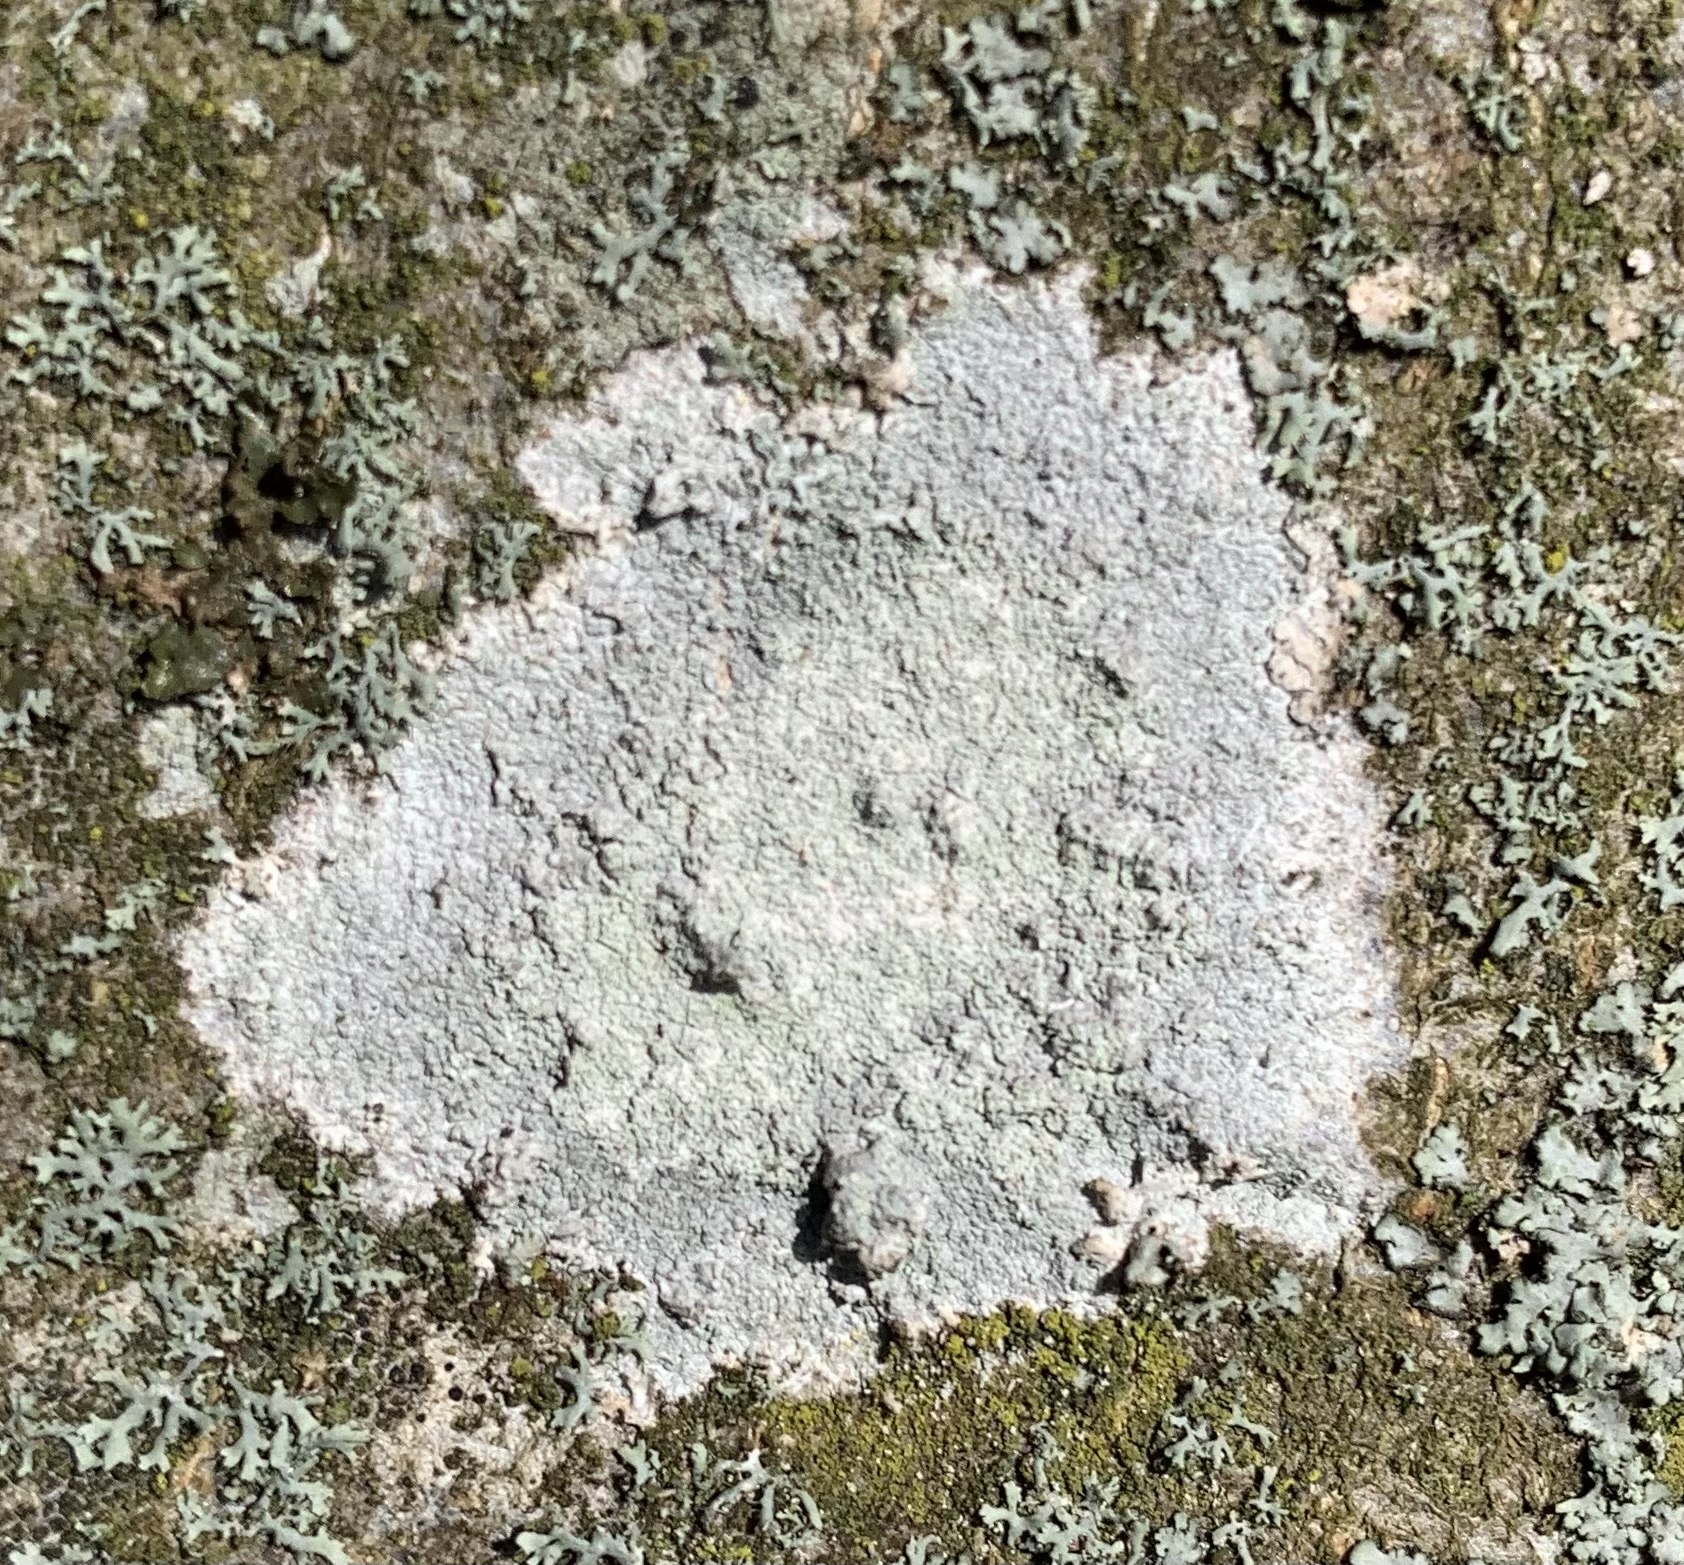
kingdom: Fungi
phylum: Ascomycota
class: Lecanoromycetes
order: Ostropales
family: Phlyctidaceae
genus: Phlyctis
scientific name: Phlyctis argena
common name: Whitewash lichen
